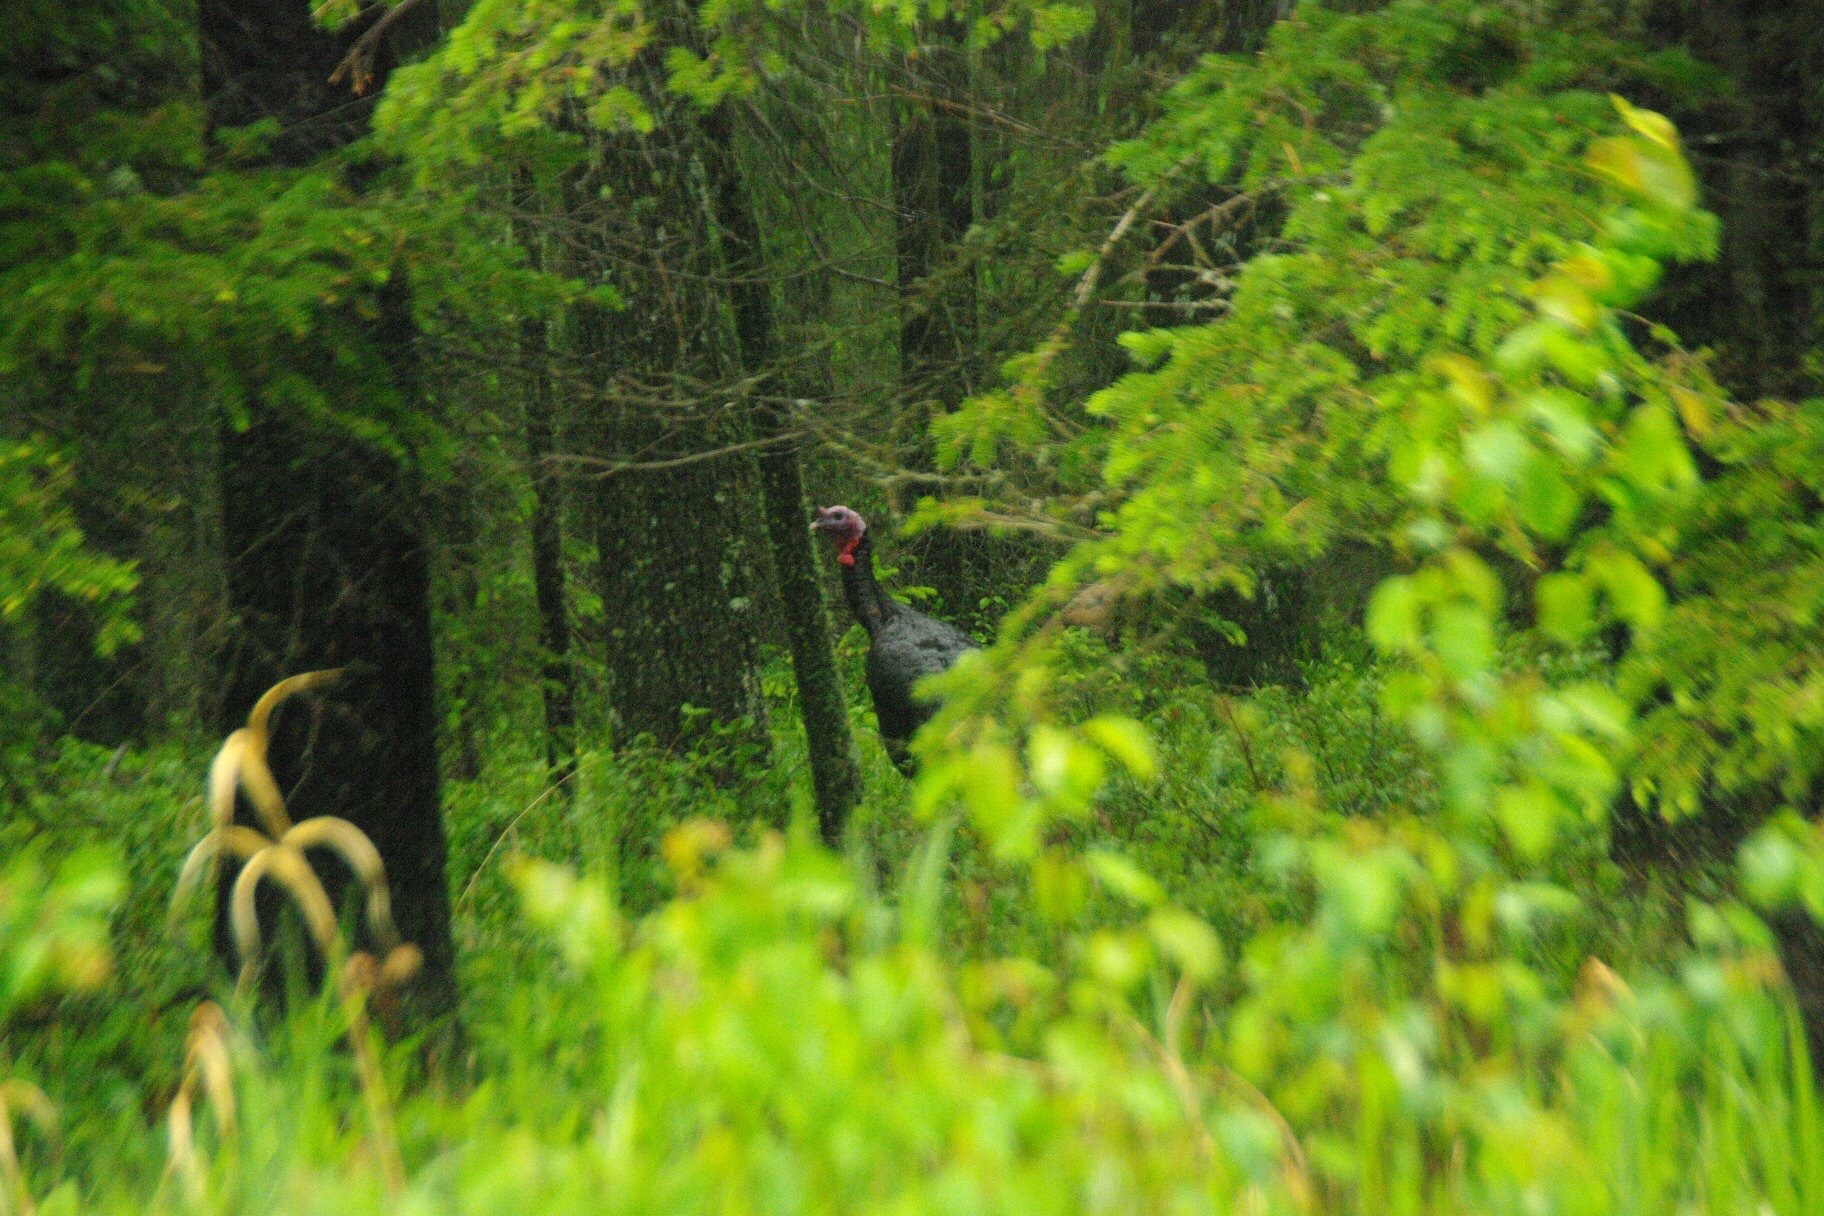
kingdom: Animalia
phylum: Chordata
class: Aves
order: Galliformes
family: Phasianidae
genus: Meleagris
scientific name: Meleagris gallopavo
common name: Wild turkey
